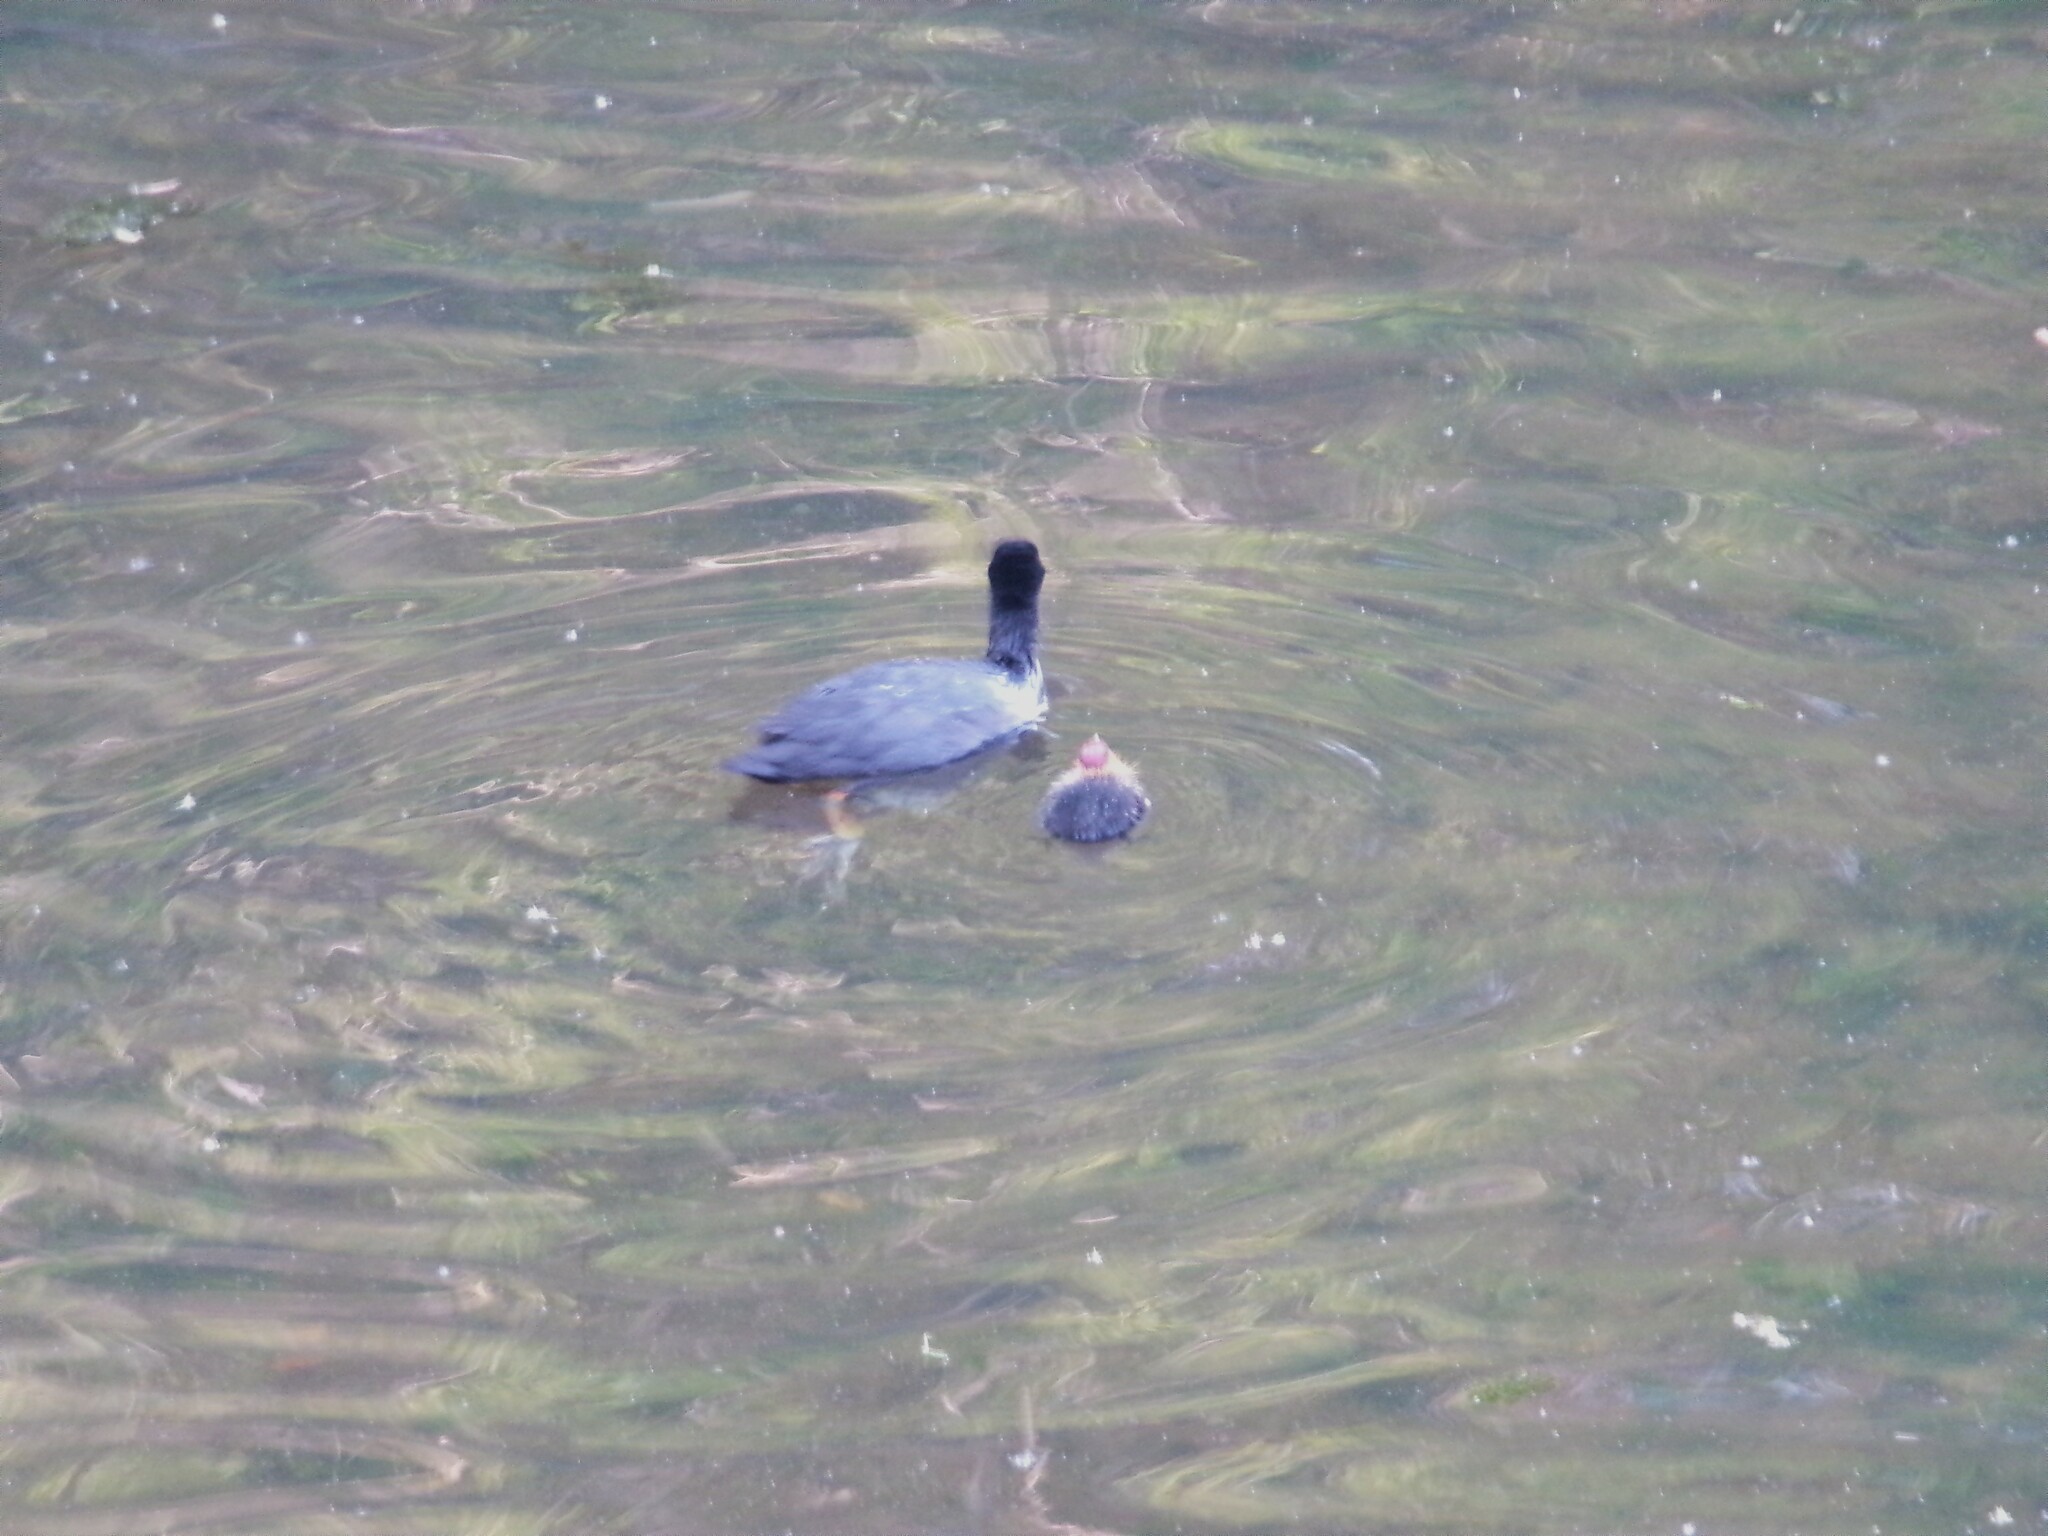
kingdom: Animalia
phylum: Chordata
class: Aves
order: Gruiformes
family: Rallidae
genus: Fulica
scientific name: Fulica atra
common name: Eurasian coot
